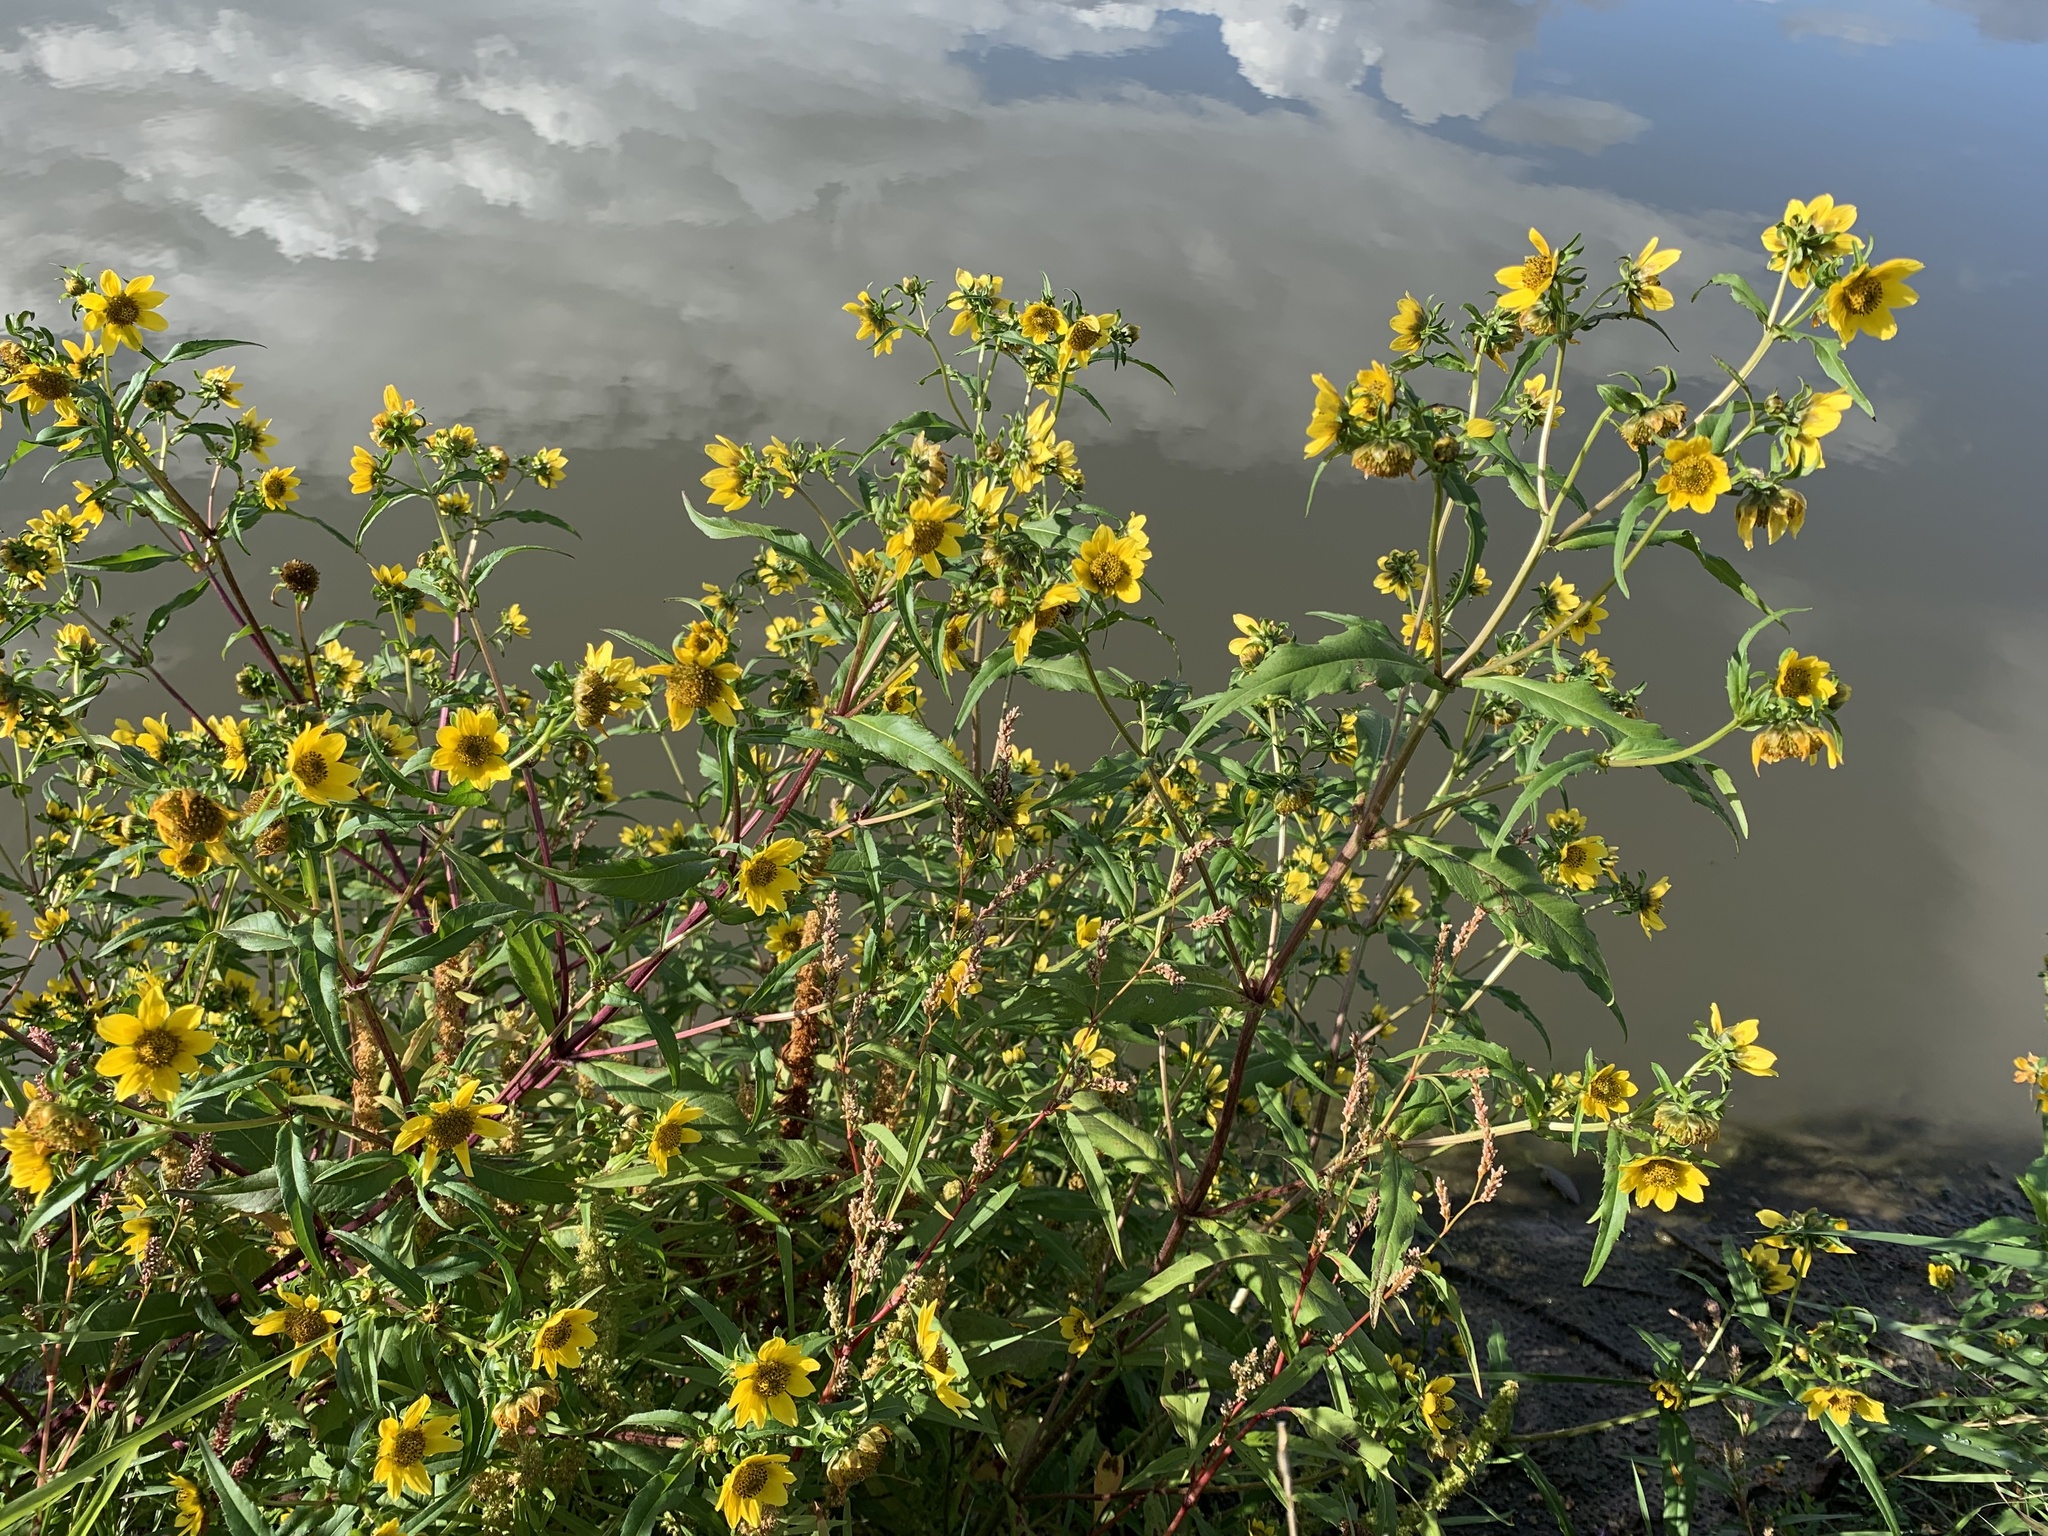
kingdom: Plantae
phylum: Tracheophyta
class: Magnoliopsida
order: Asterales
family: Asteraceae
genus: Bidens
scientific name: Bidens cernua
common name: Nodding bur-marigold
